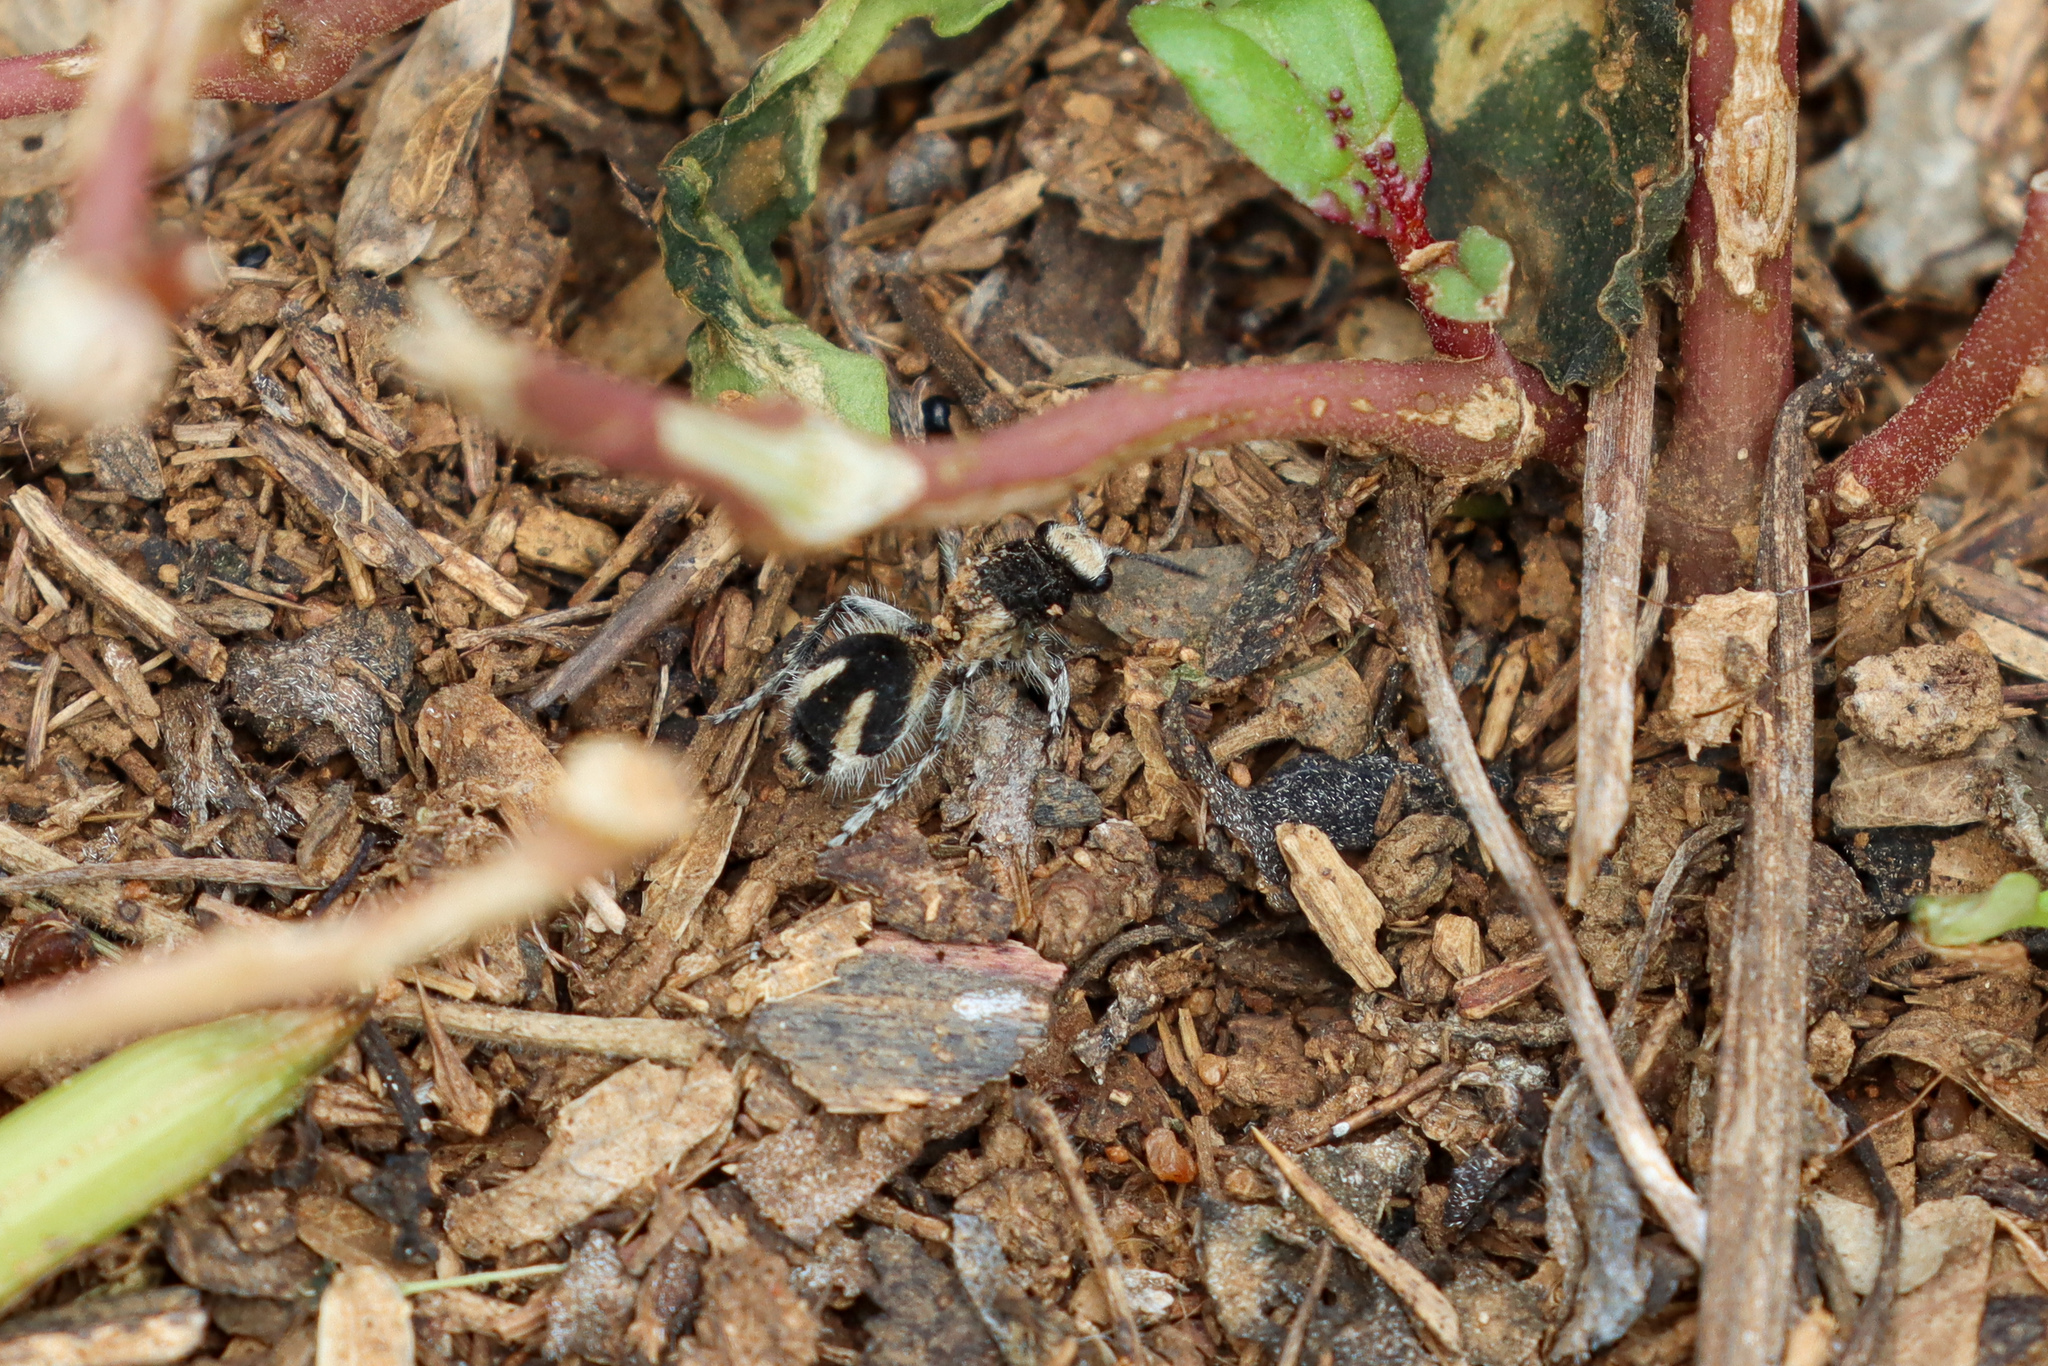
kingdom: Animalia
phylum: Arthropoda
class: Insecta
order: Hymenoptera
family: Mutillidae
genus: Traumatomutilla
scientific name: Traumatomutilla bifurca
